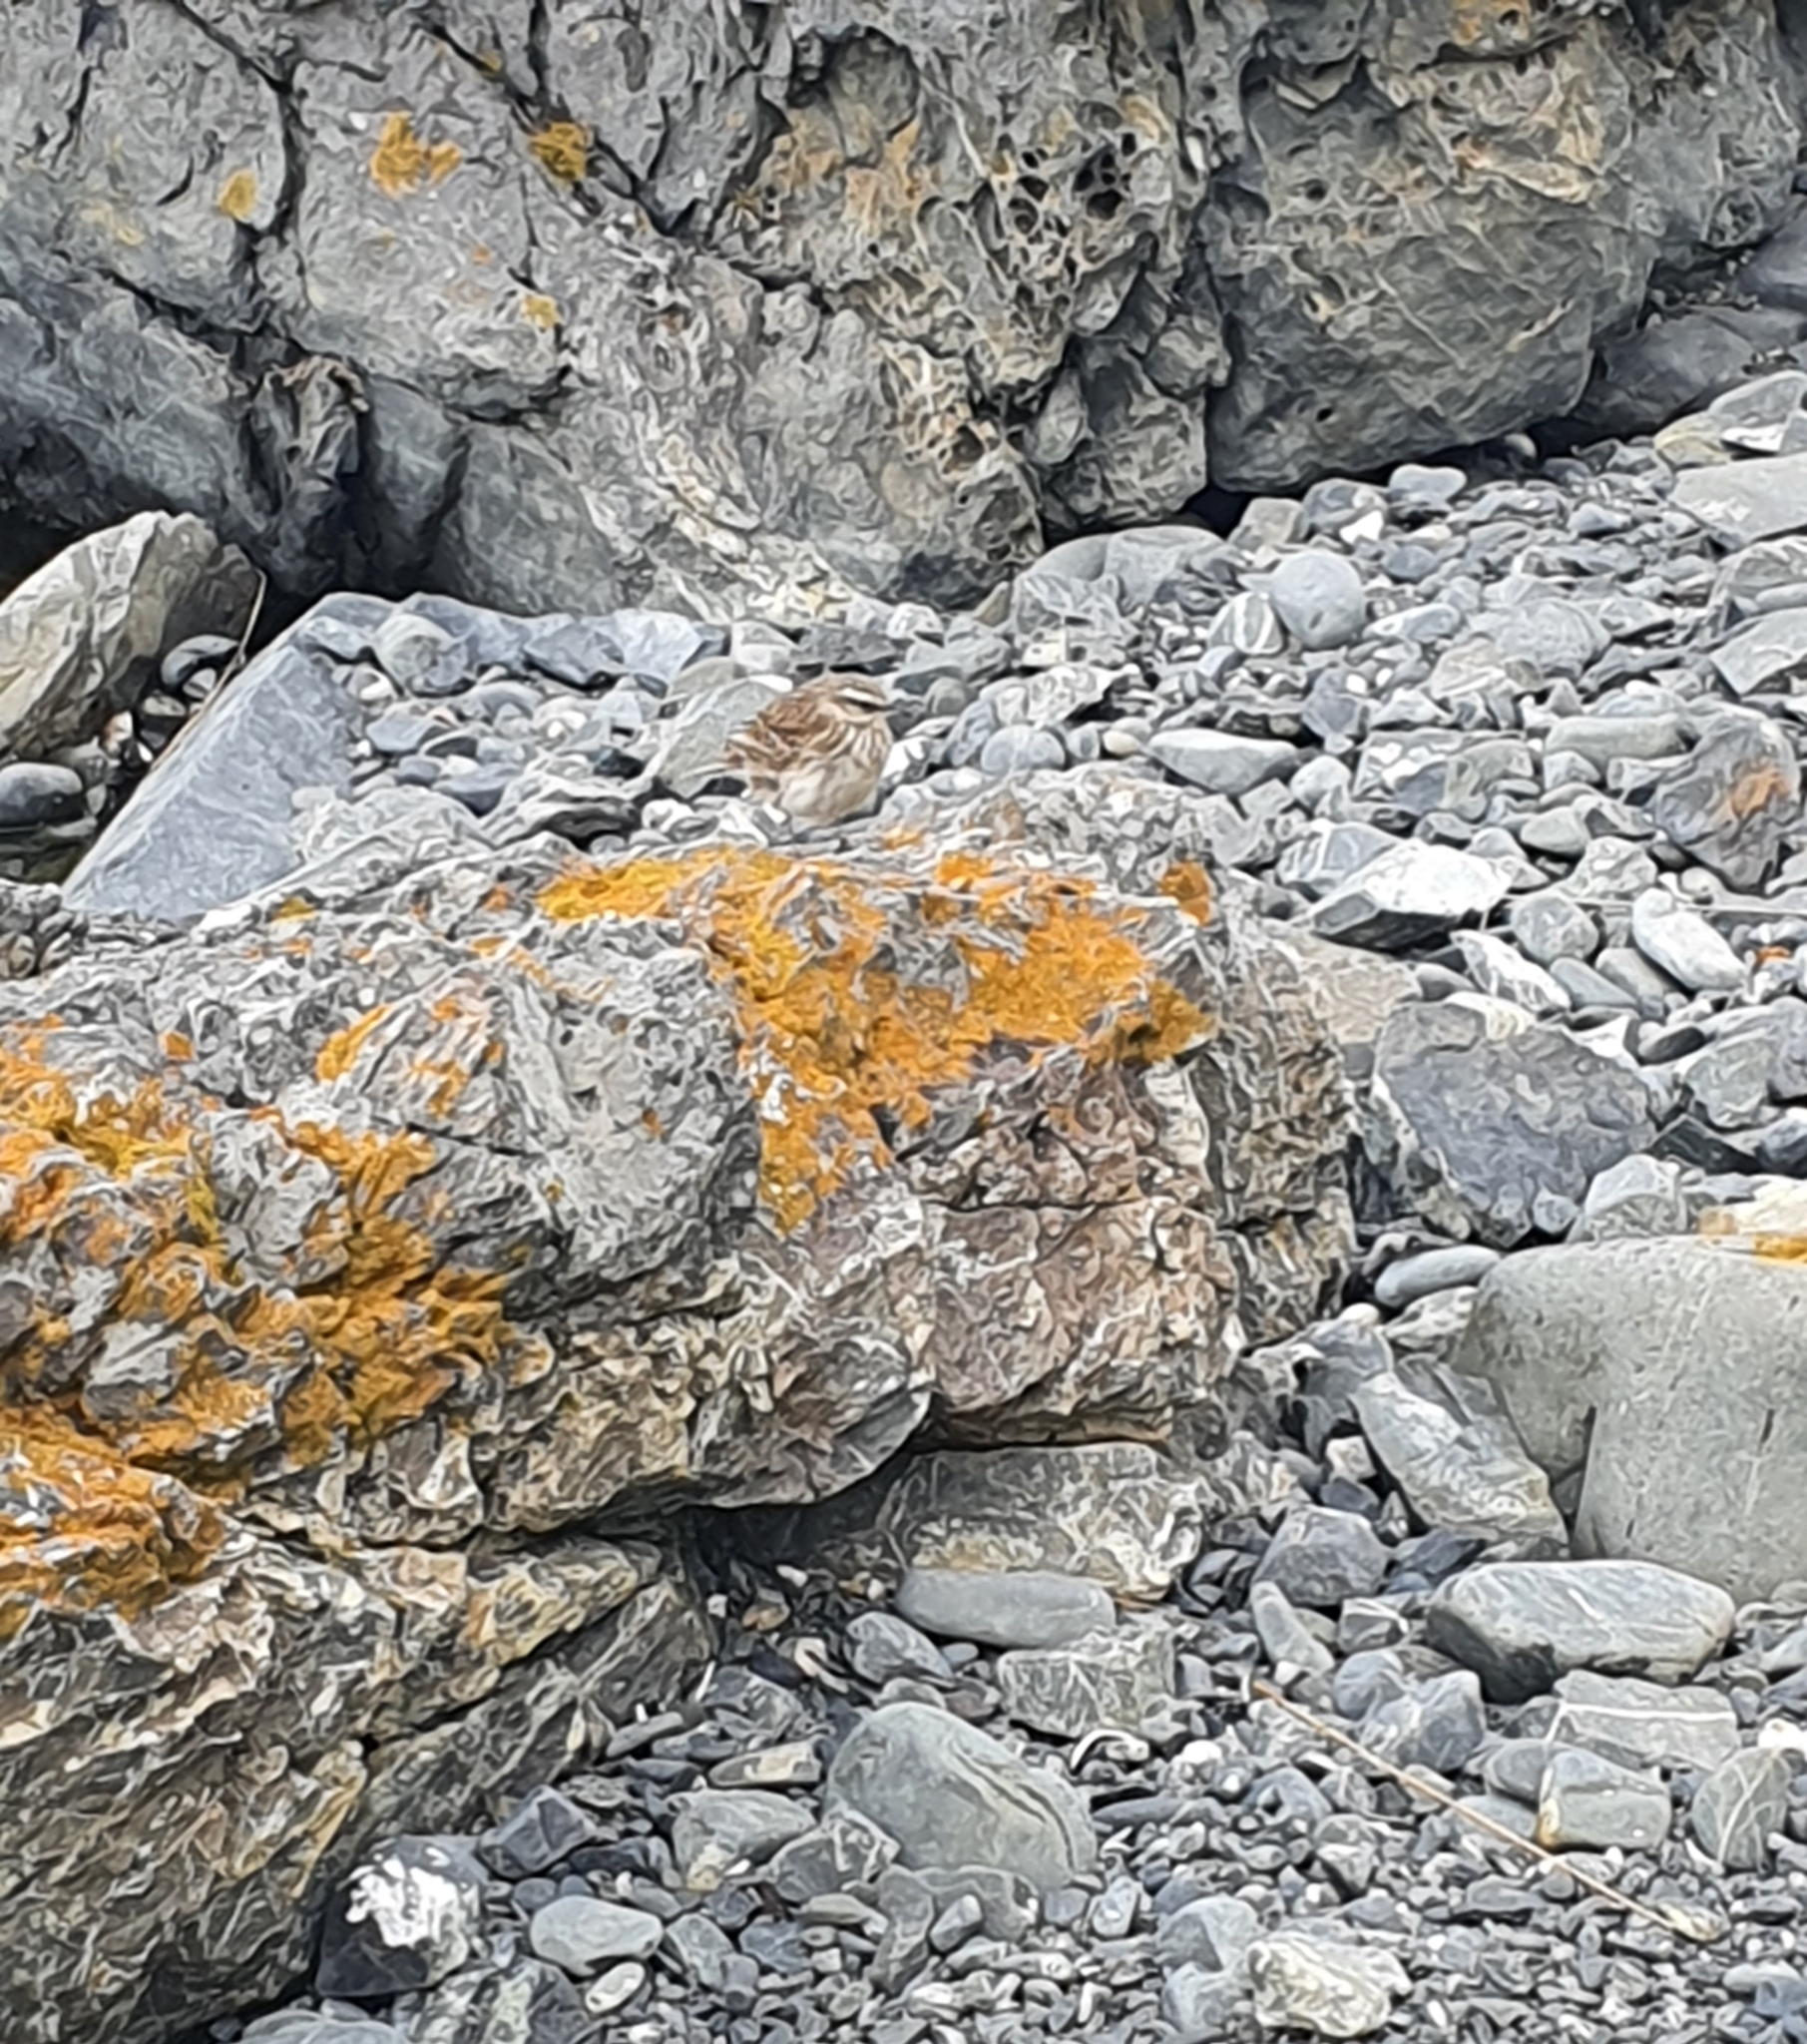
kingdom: Animalia
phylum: Chordata
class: Aves
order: Passeriformes
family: Motacillidae
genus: Anthus
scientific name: Anthus novaeseelandiae
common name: New zealand pipit
